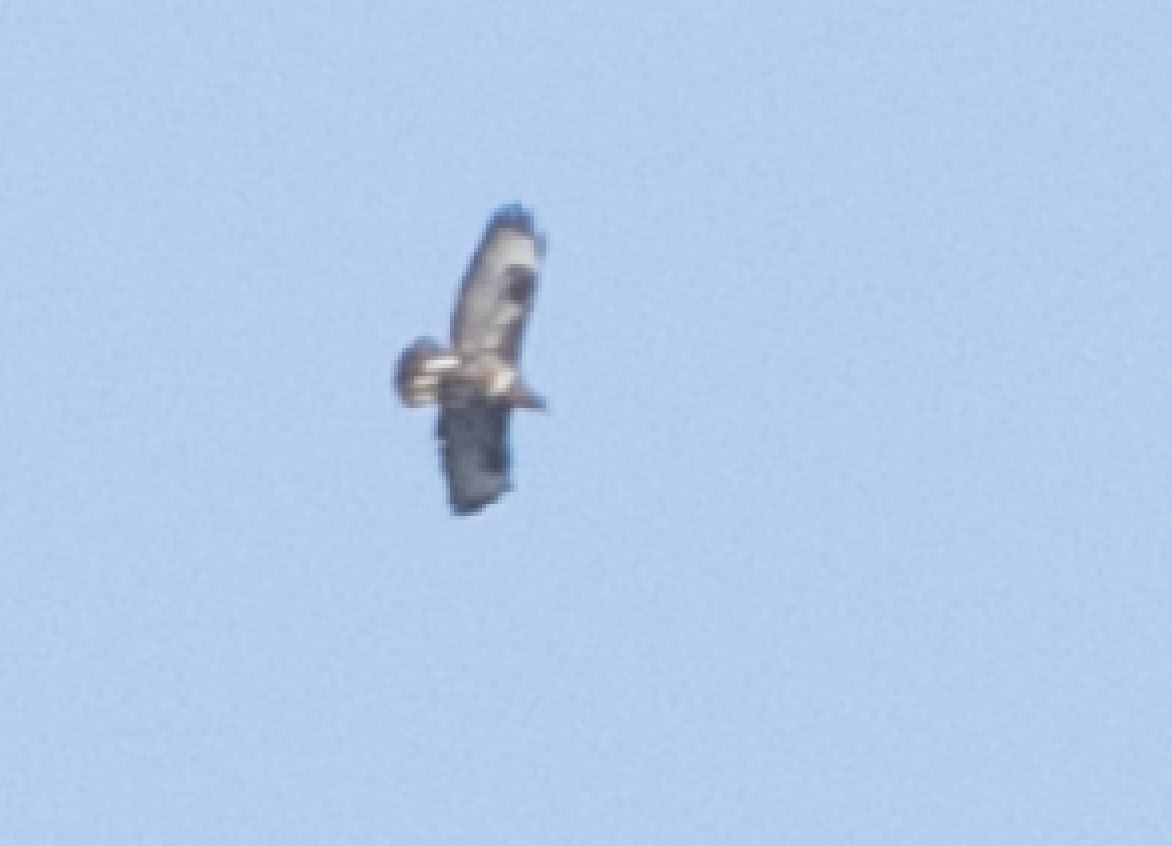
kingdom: Animalia
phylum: Chordata
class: Aves
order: Accipitriformes
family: Accipitridae
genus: Buteo
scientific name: Buteo buteo
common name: Common buzzard
